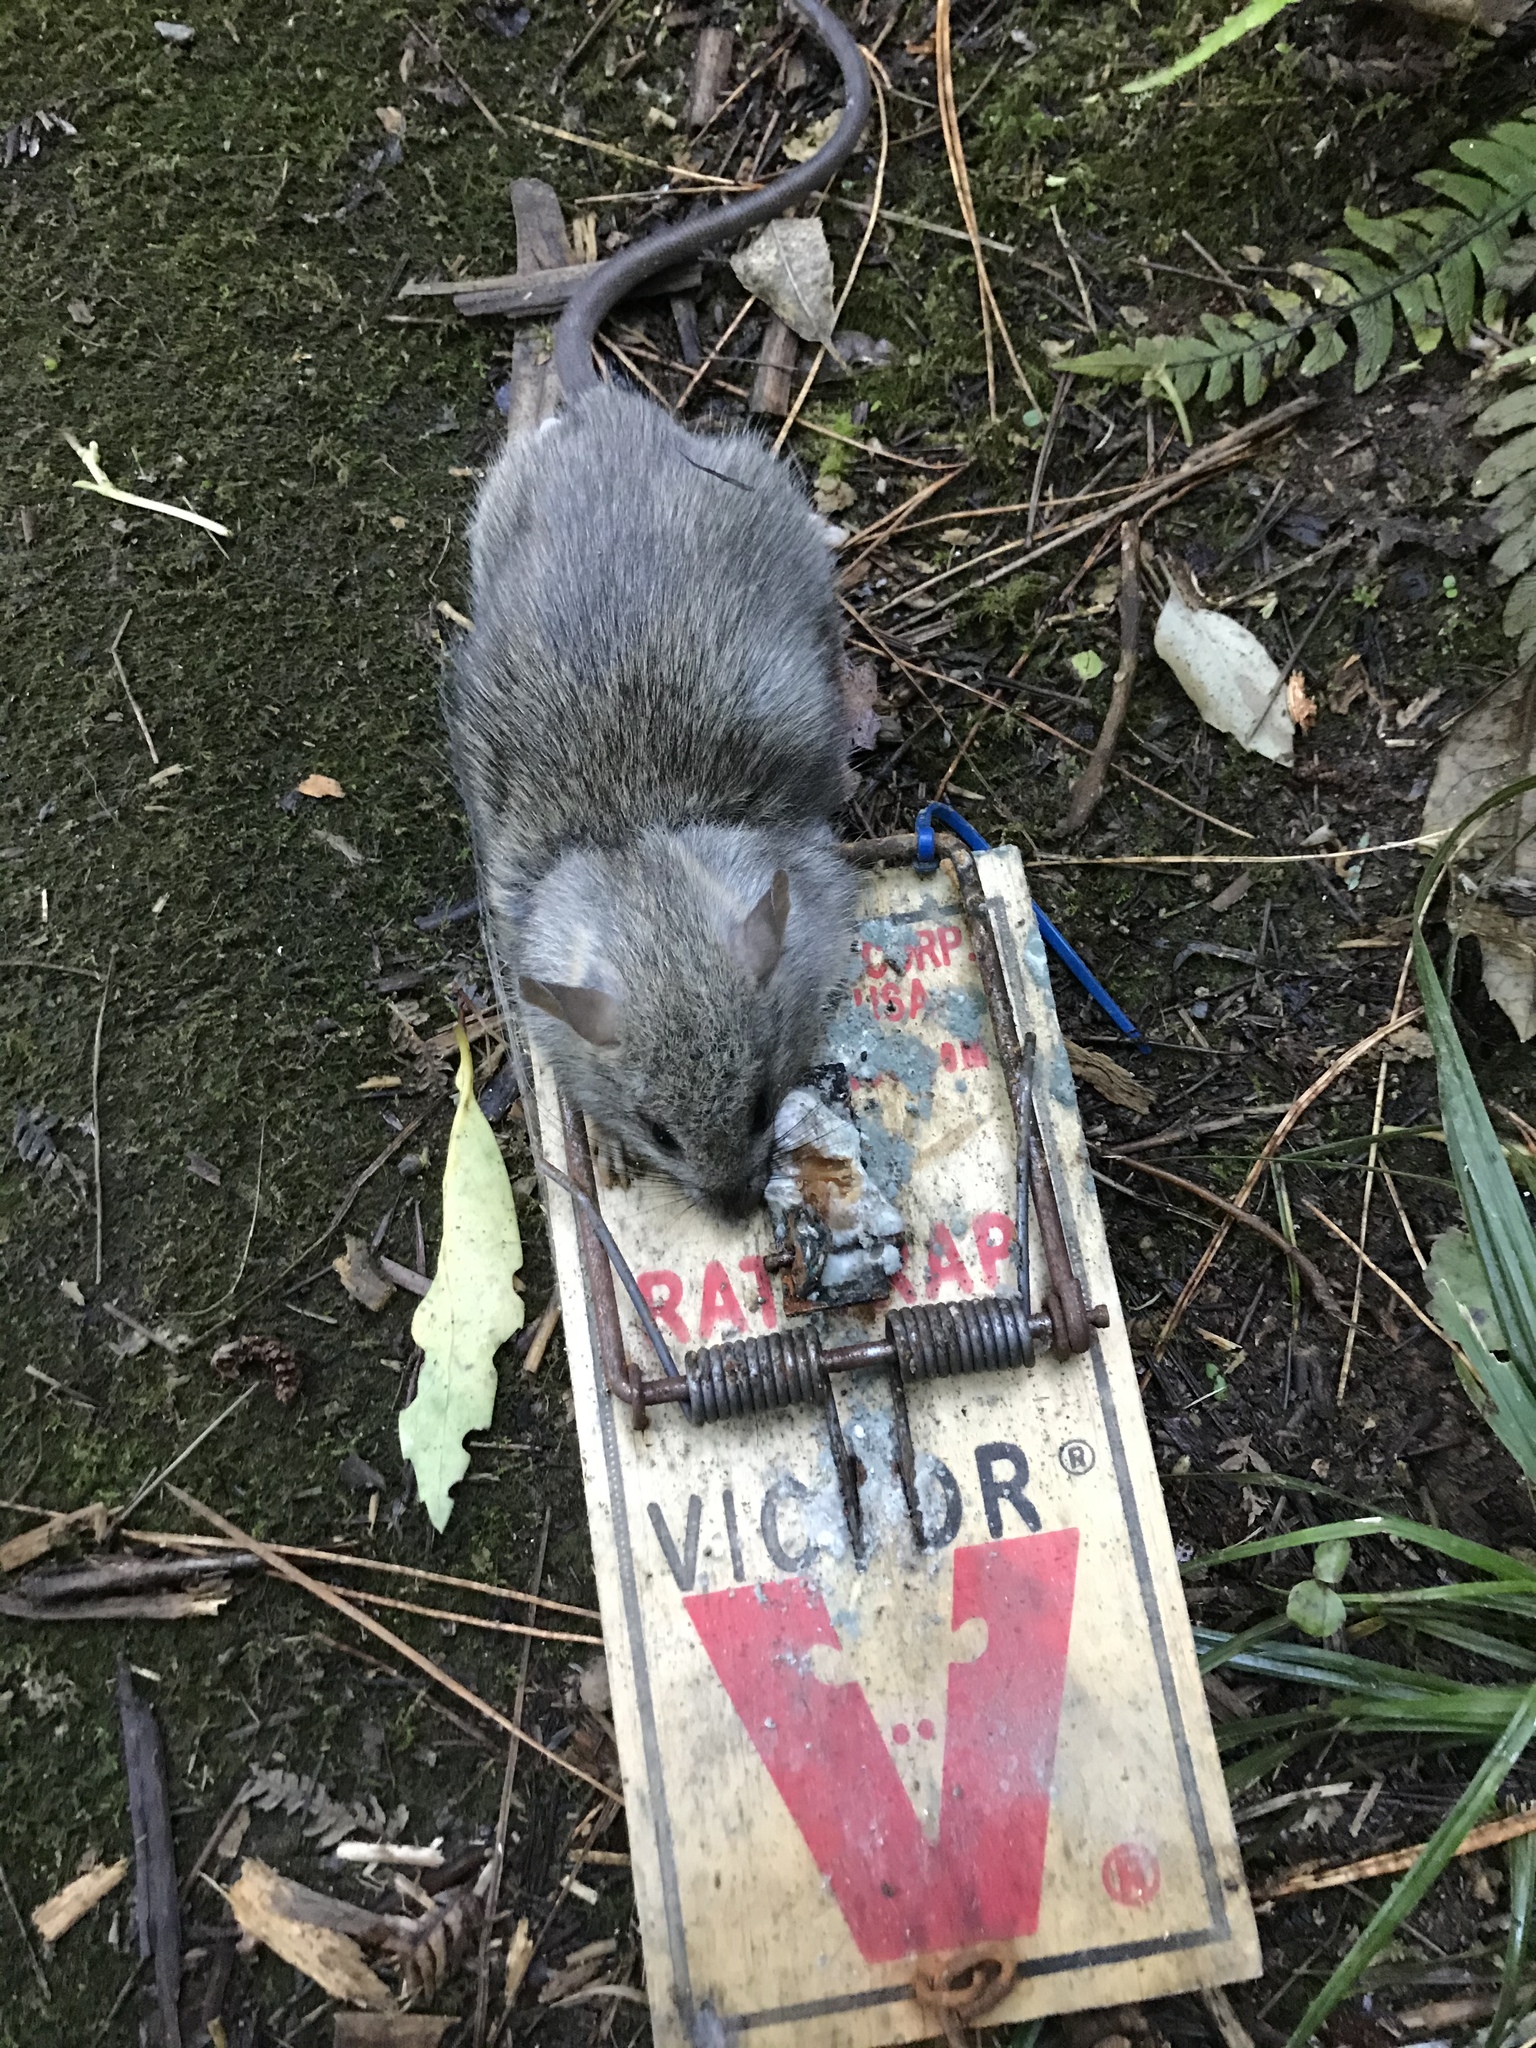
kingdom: Animalia
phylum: Chordata
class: Mammalia
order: Rodentia
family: Muridae
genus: Rattus
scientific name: Rattus rattus
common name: Black rat
